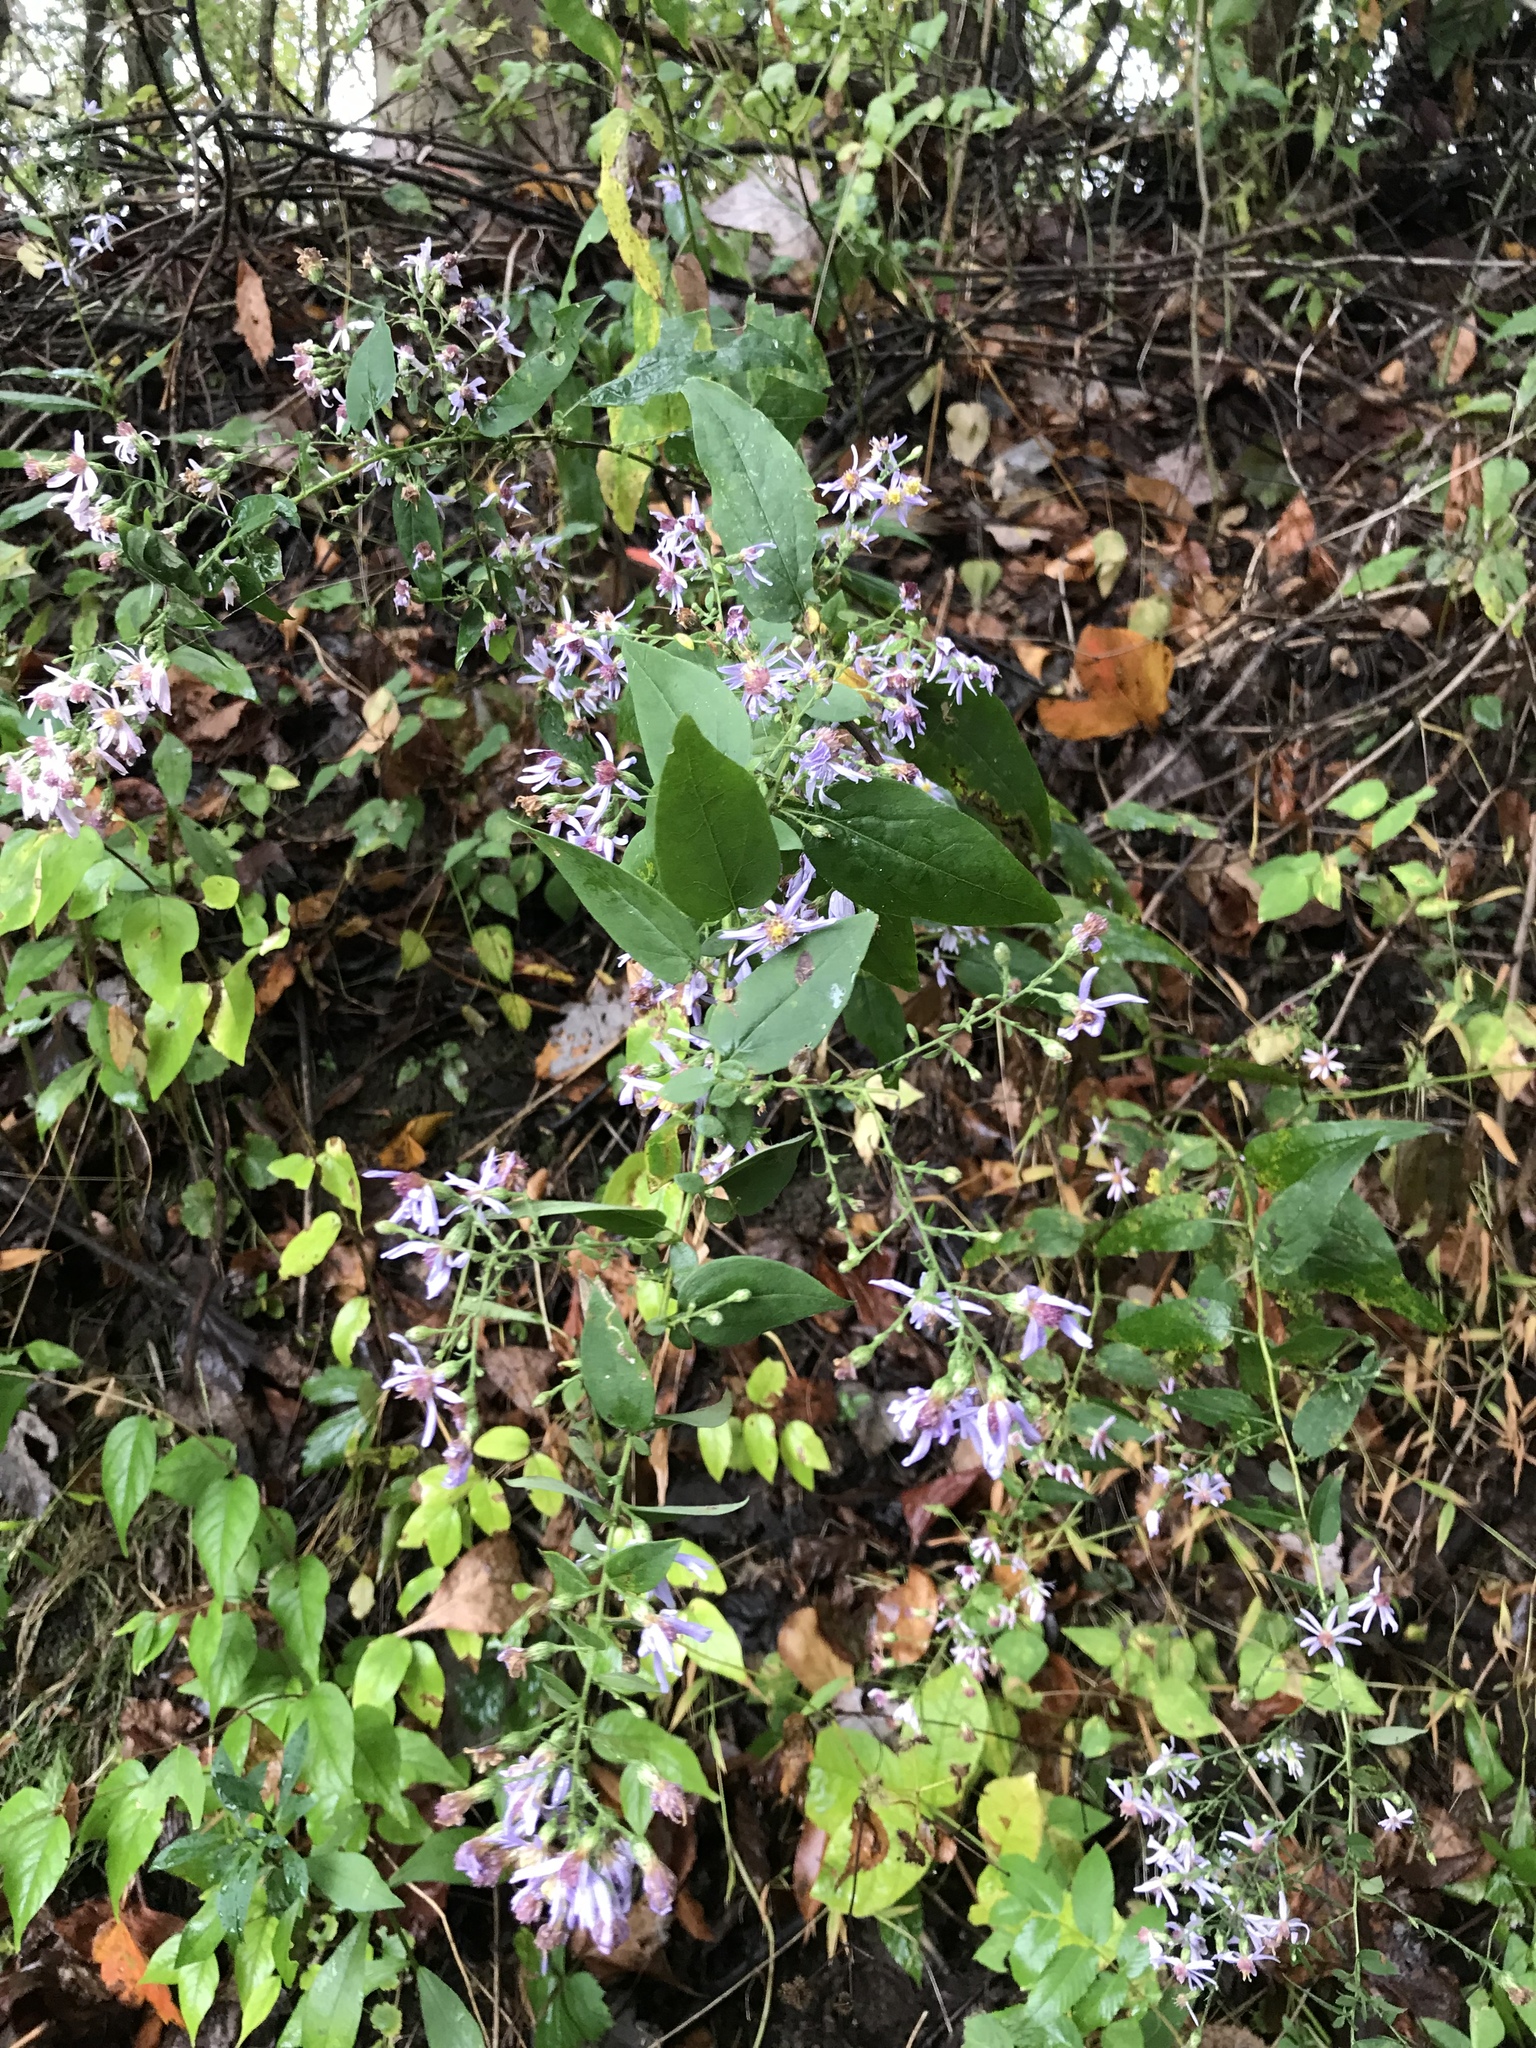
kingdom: Plantae
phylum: Tracheophyta
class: Magnoliopsida
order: Asterales
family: Asteraceae
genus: Symphyotrichum
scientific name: Symphyotrichum shortii
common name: Short's aster
